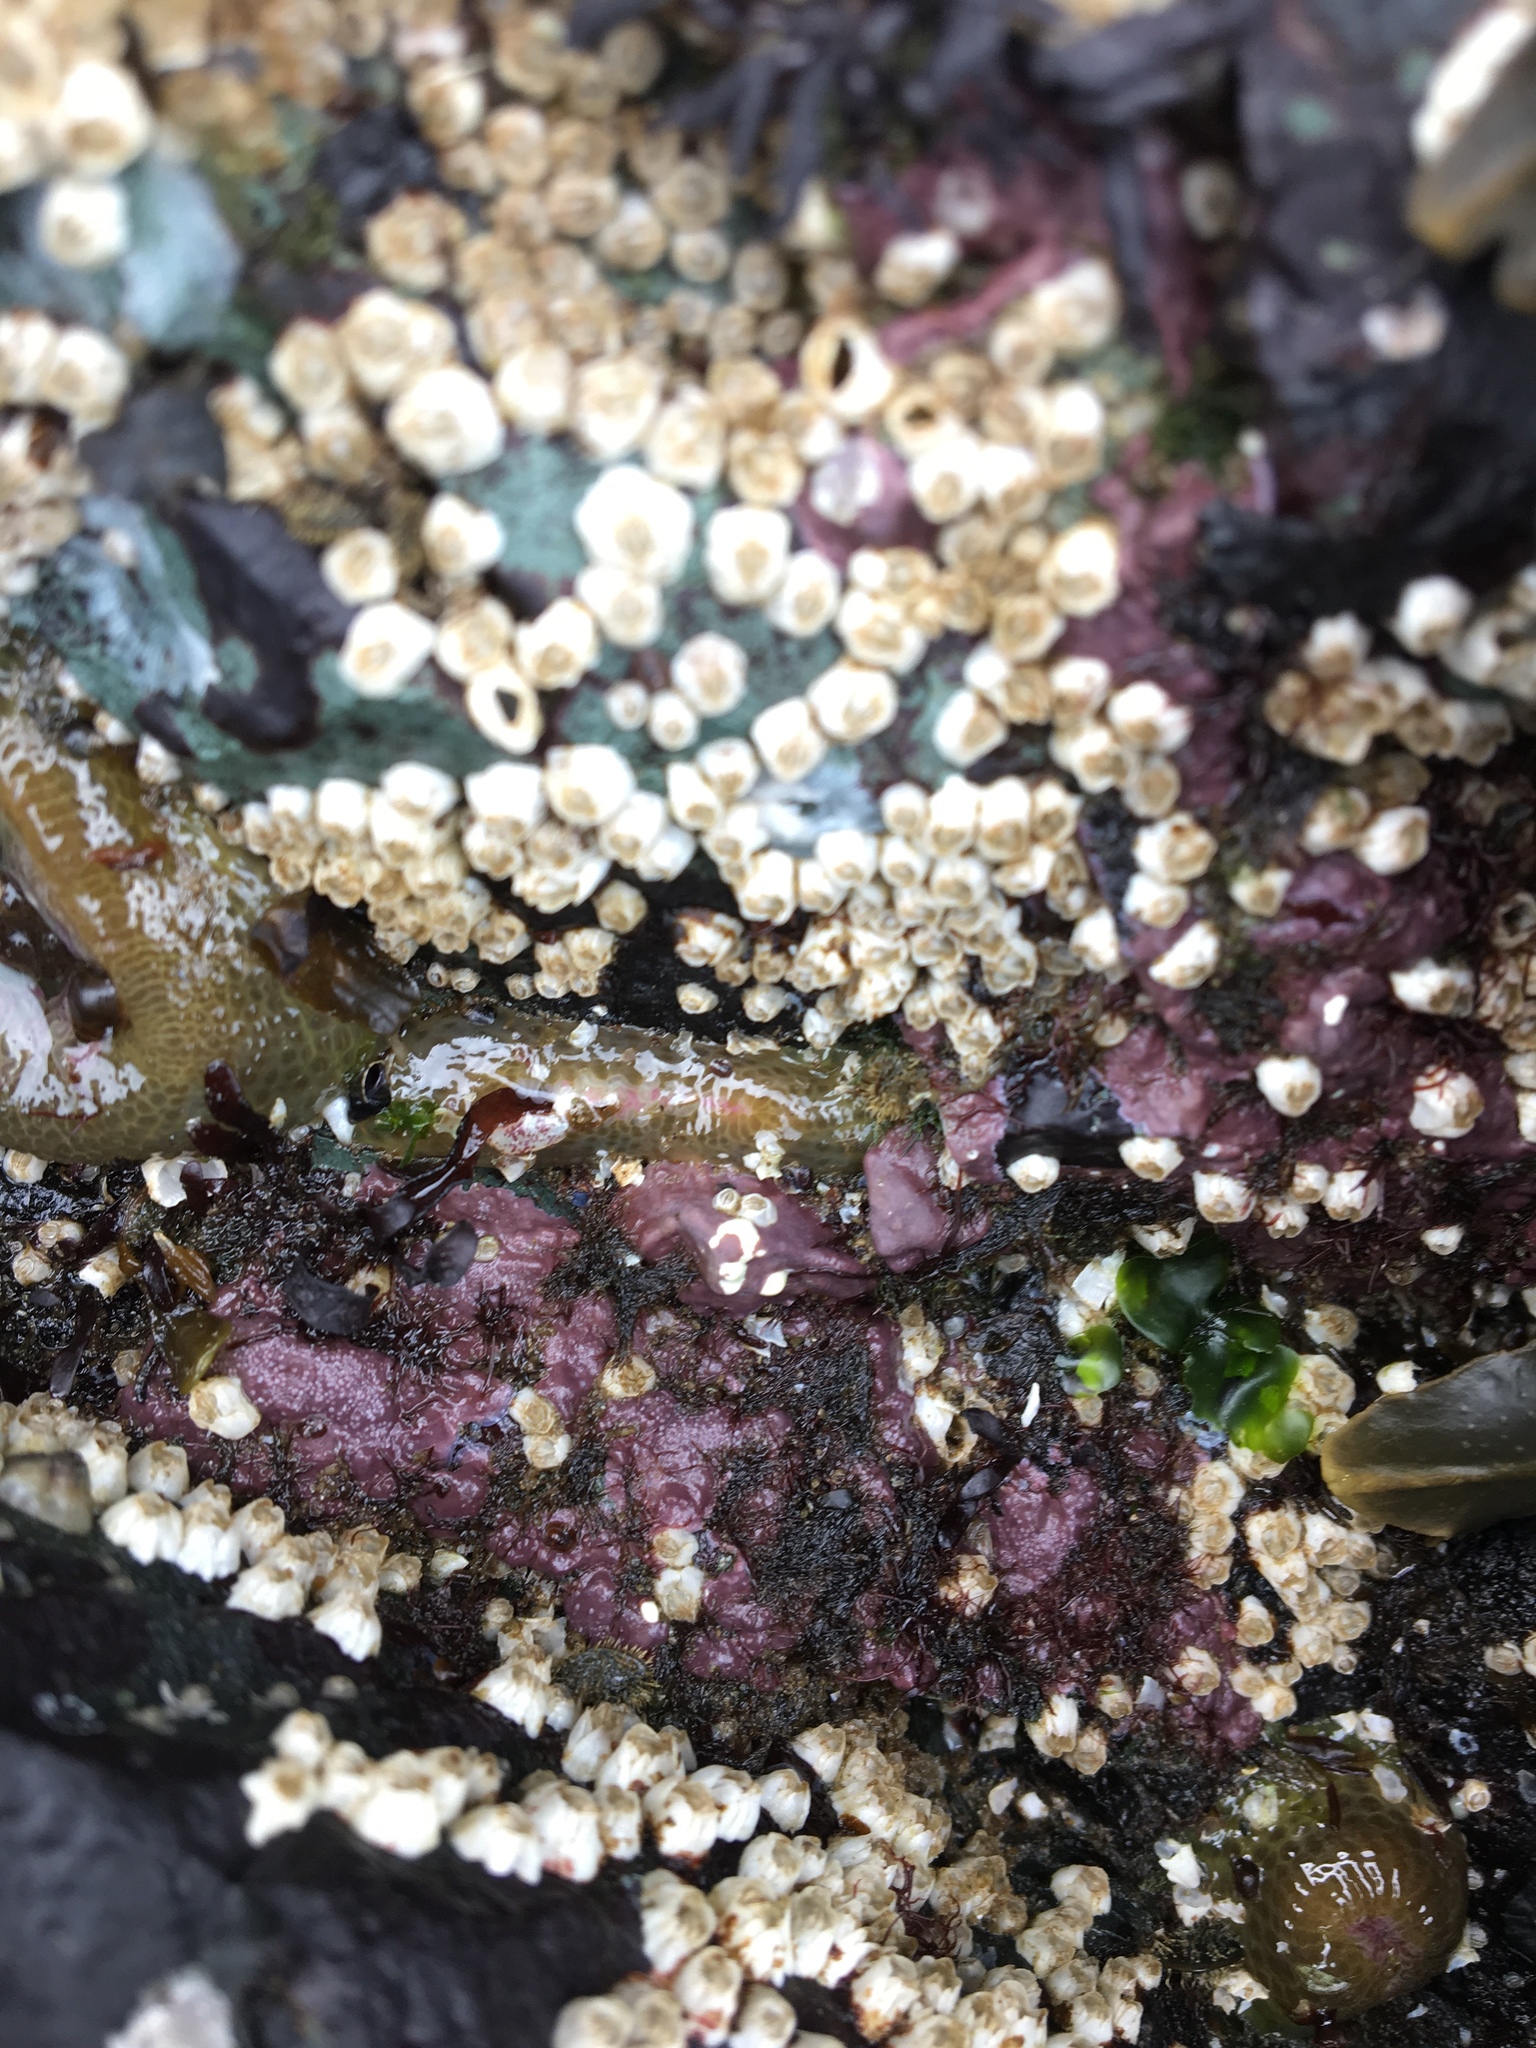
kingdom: Plantae
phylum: Rhodophyta
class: Florideophyceae
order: Corallinales
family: Corallinaceae
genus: Chamberlainium
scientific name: Chamberlainium tumidum
